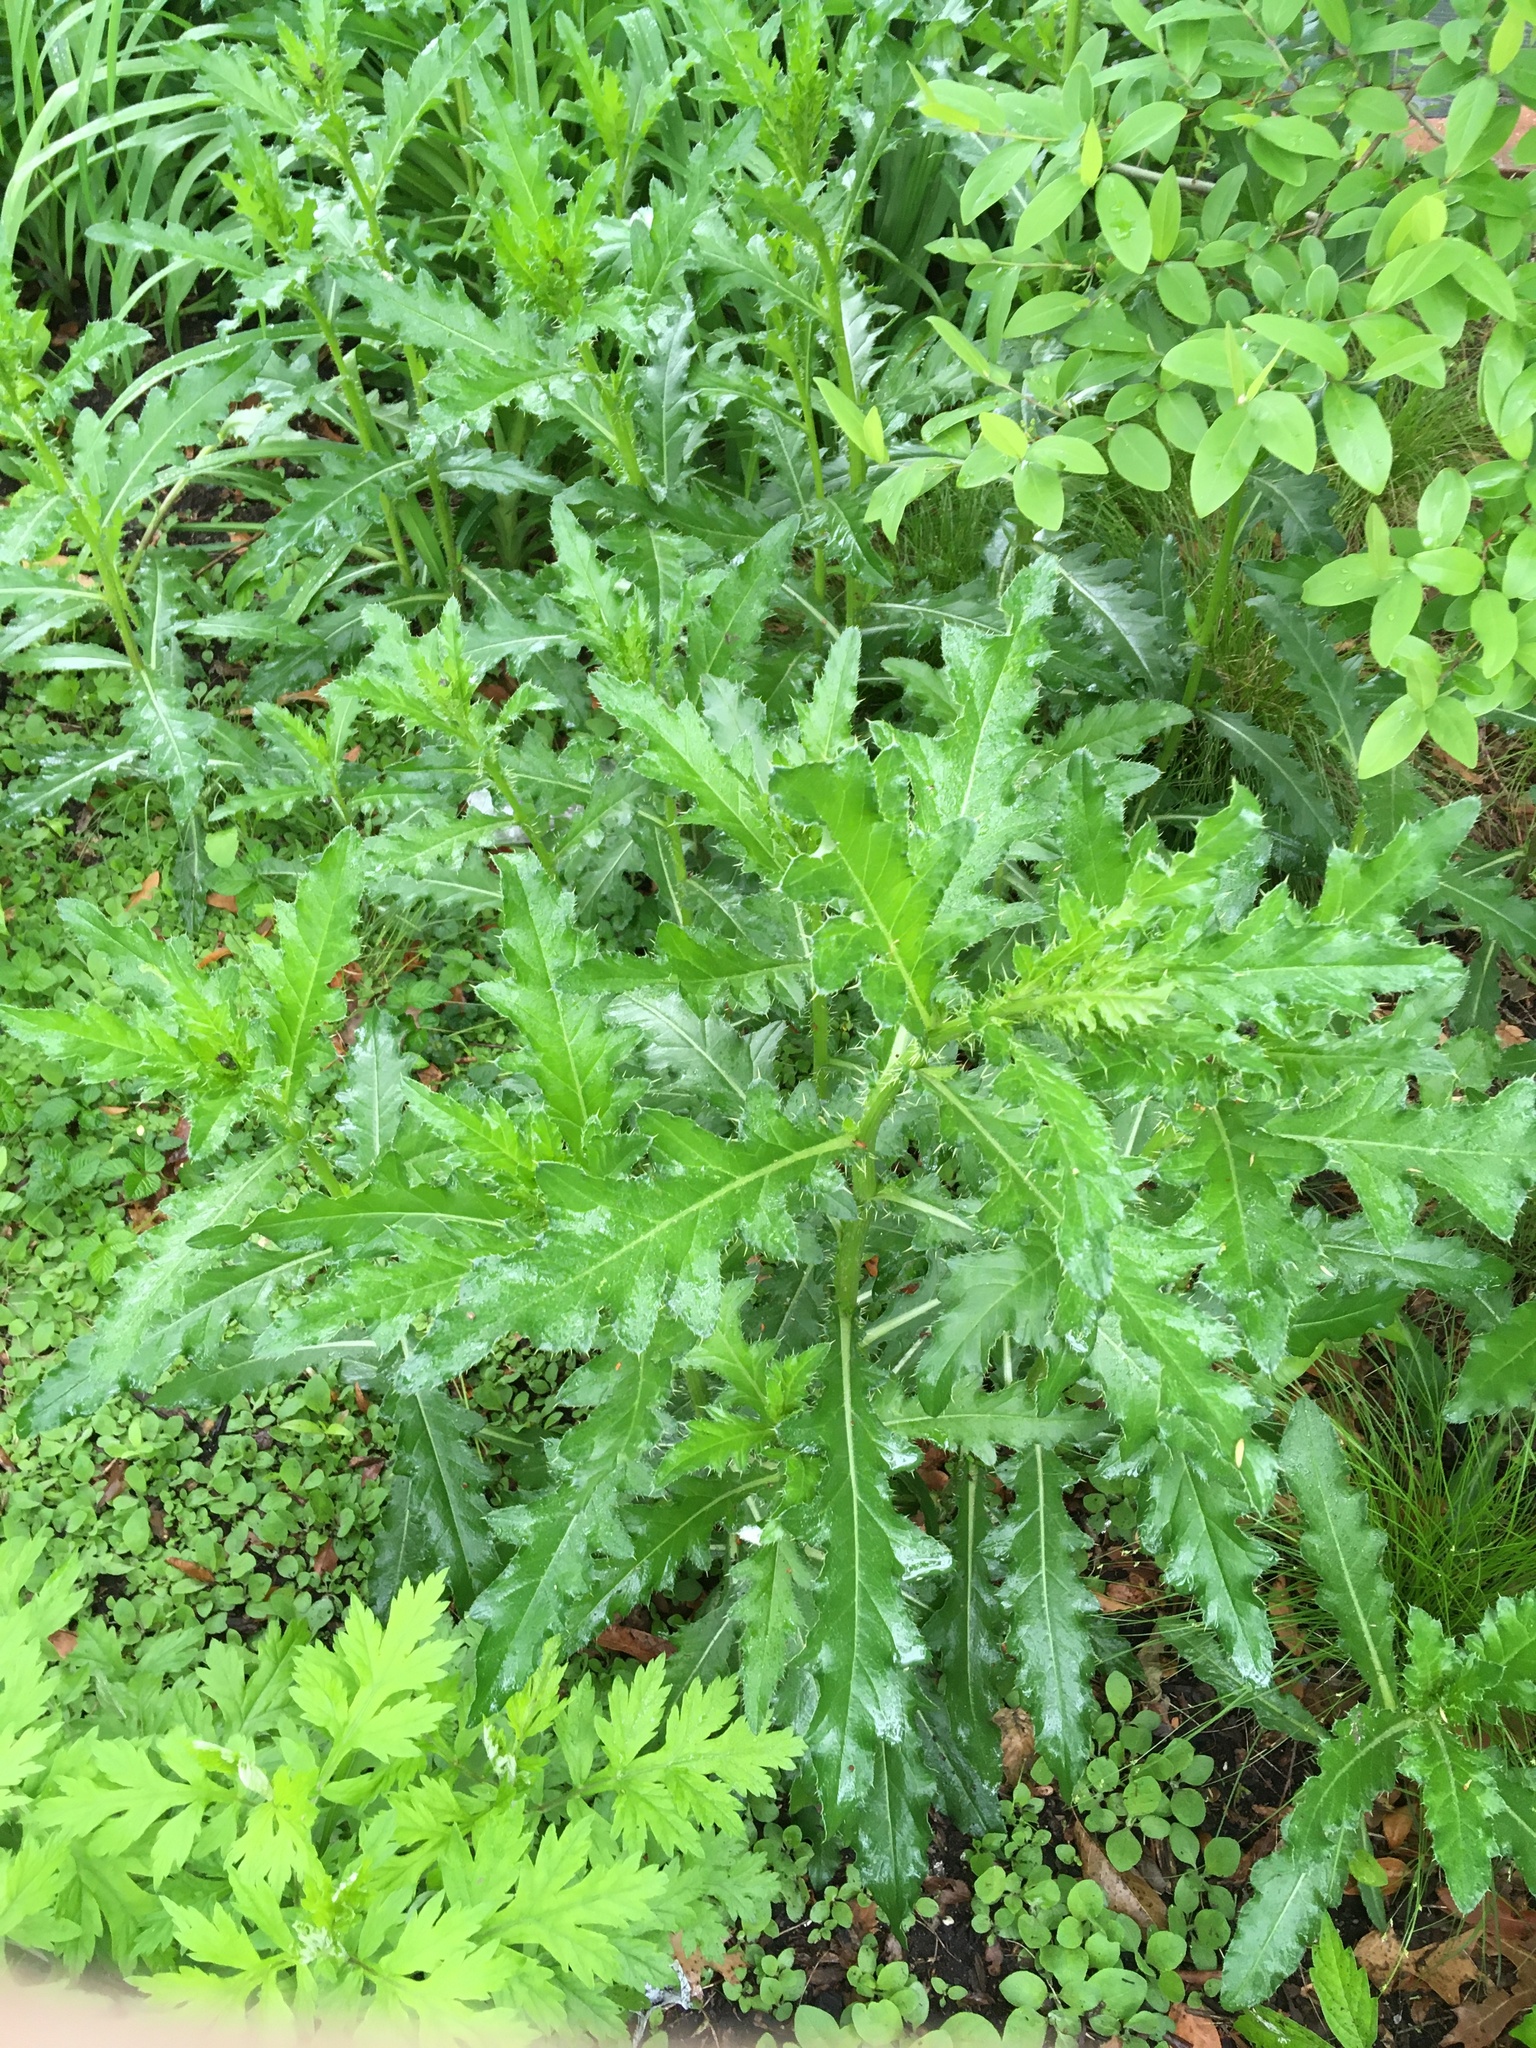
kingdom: Plantae
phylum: Tracheophyta
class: Magnoliopsida
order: Asterales
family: Asteraceae
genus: Cirsium
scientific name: Cirsium arvense
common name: Creeping thistle
